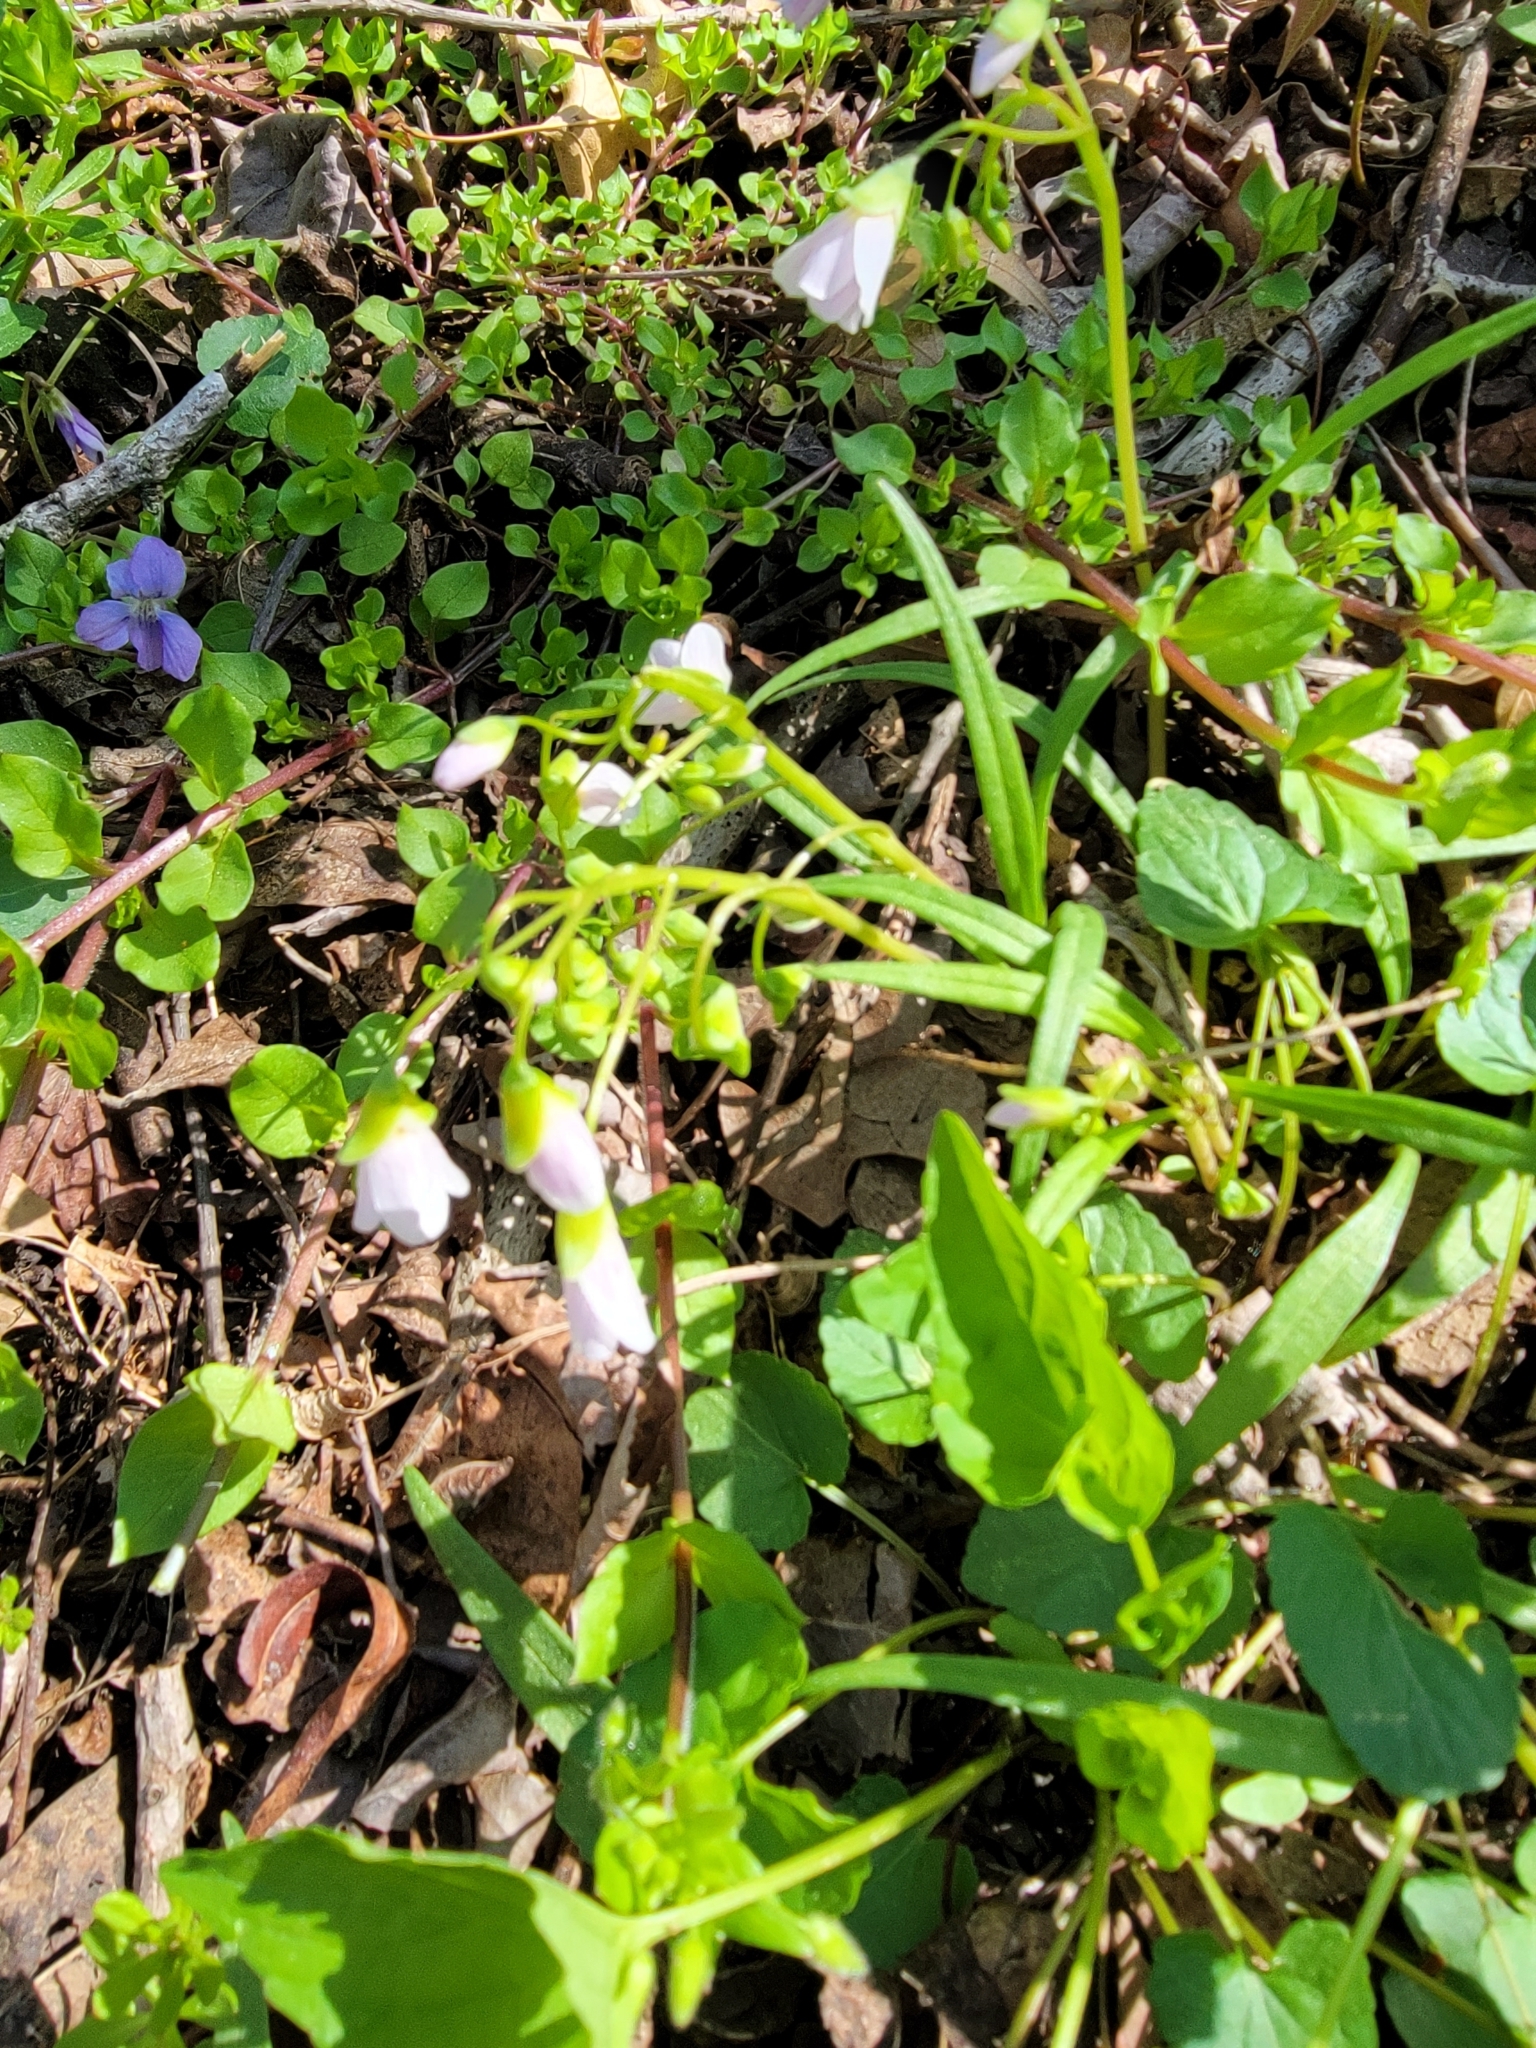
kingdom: Plantae
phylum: Tracheophyta
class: Magnoliopsida
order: Caryophyllales
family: Montiaceae
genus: Claytonia
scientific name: Claytonia virginica
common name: Virginia springbeauty
